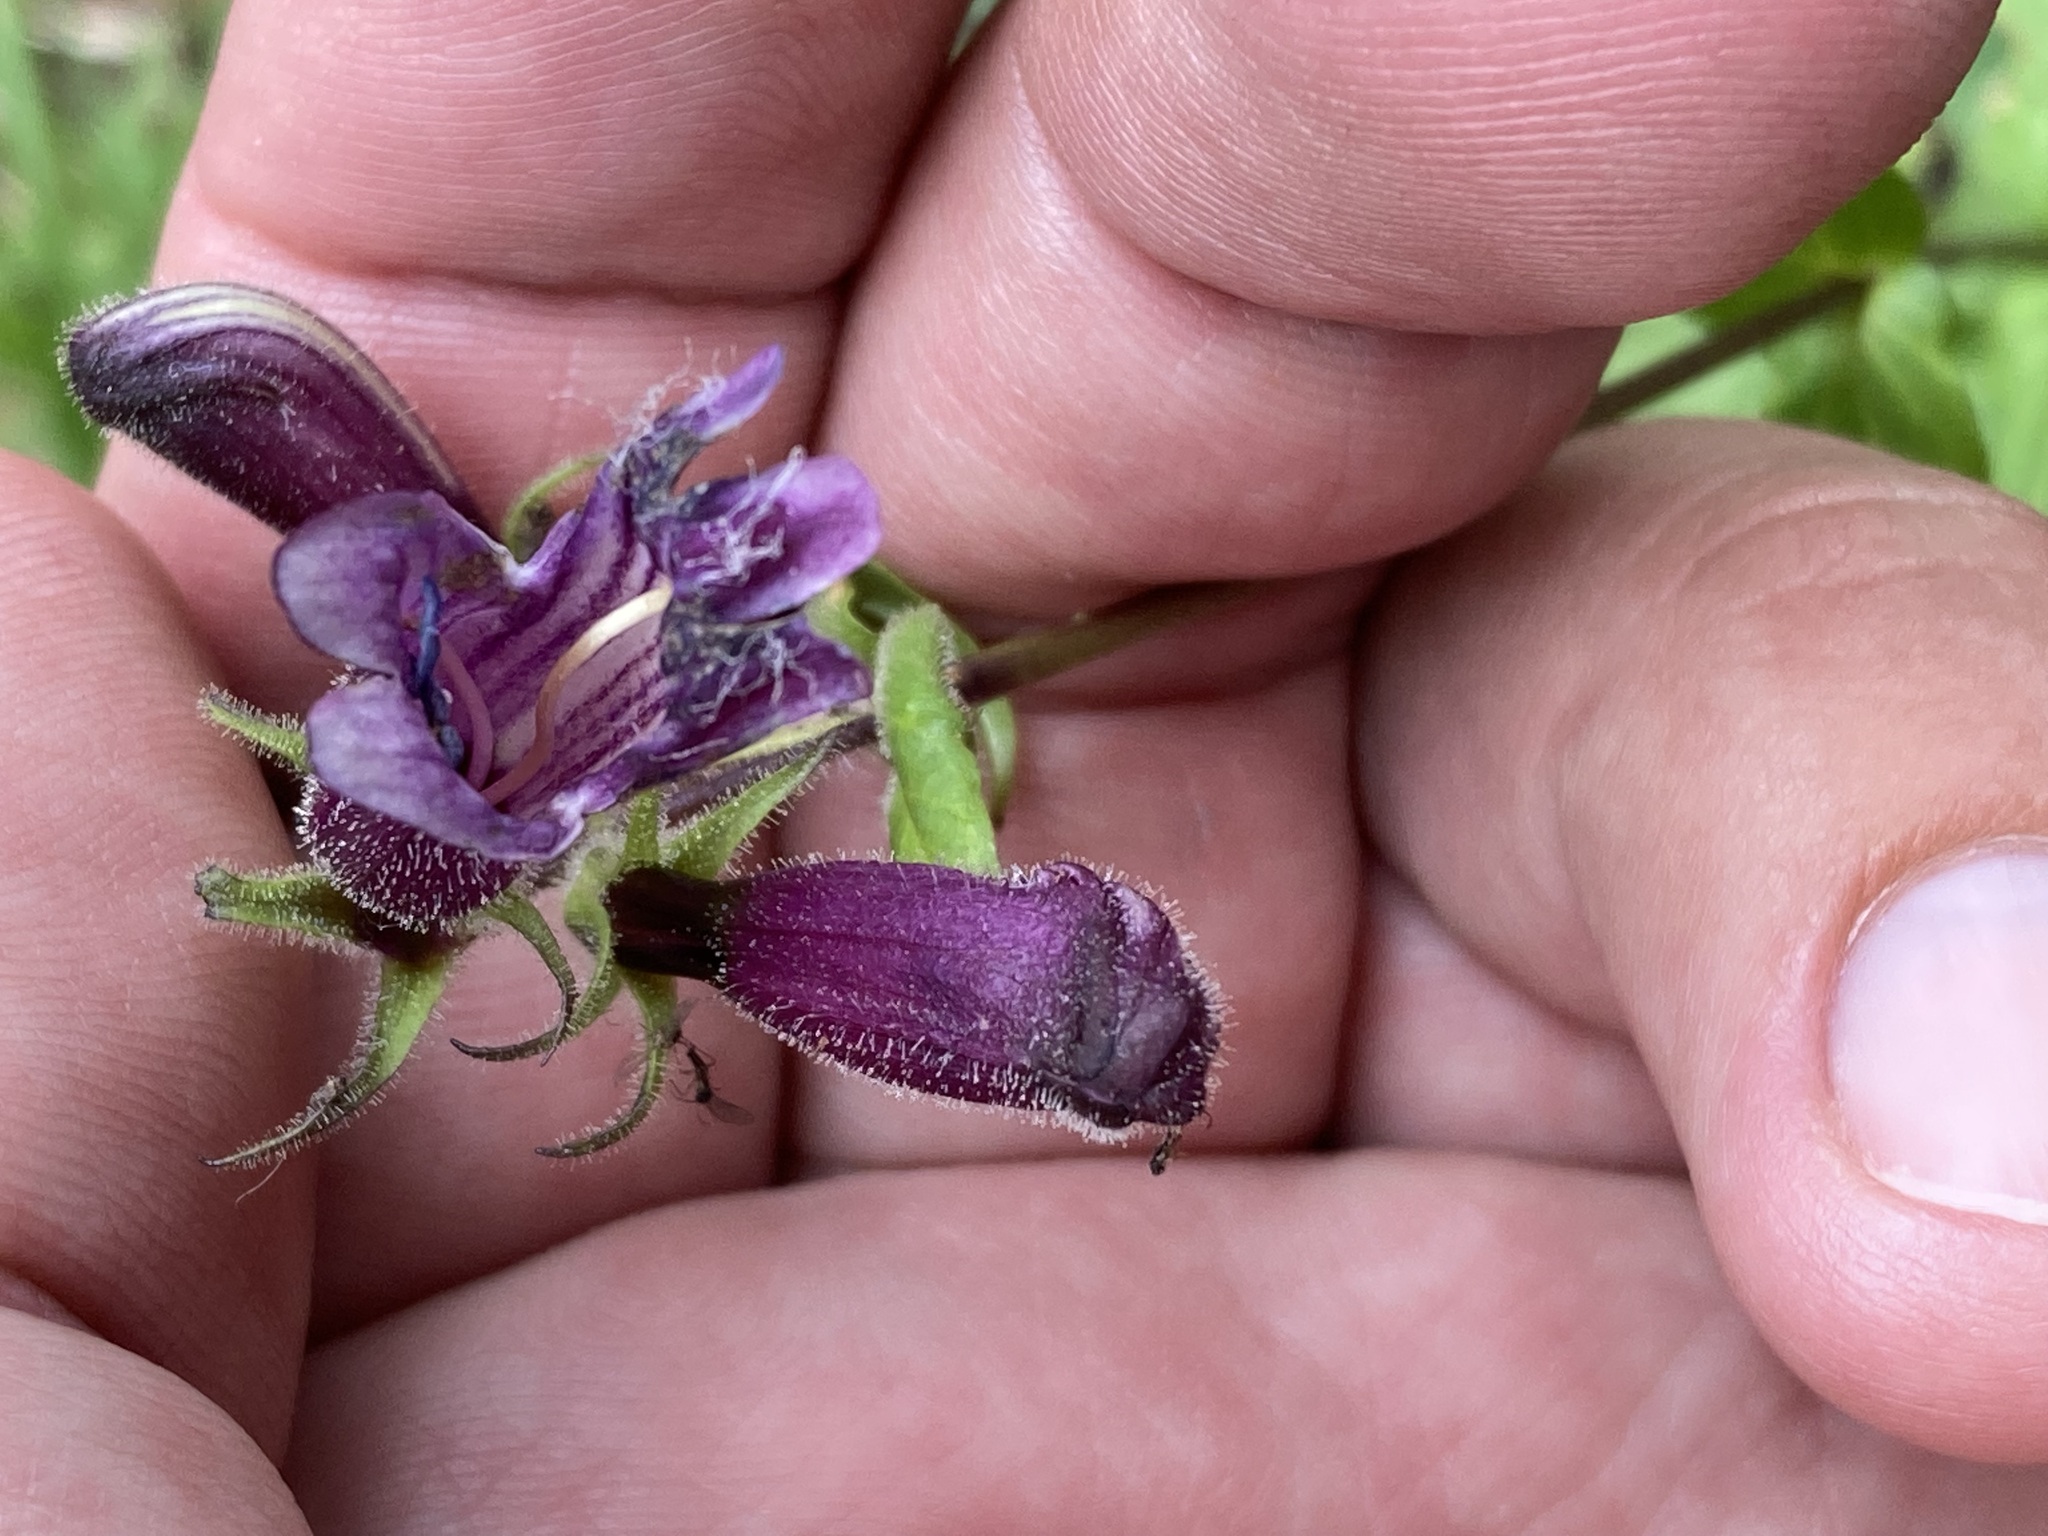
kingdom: Plantae
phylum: Tracheophyta
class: Magnoliopsida
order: Lamiales
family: Plantaginaceae
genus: Penstemon
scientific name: Penstemon whippleanus
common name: Whipple's penstemon
